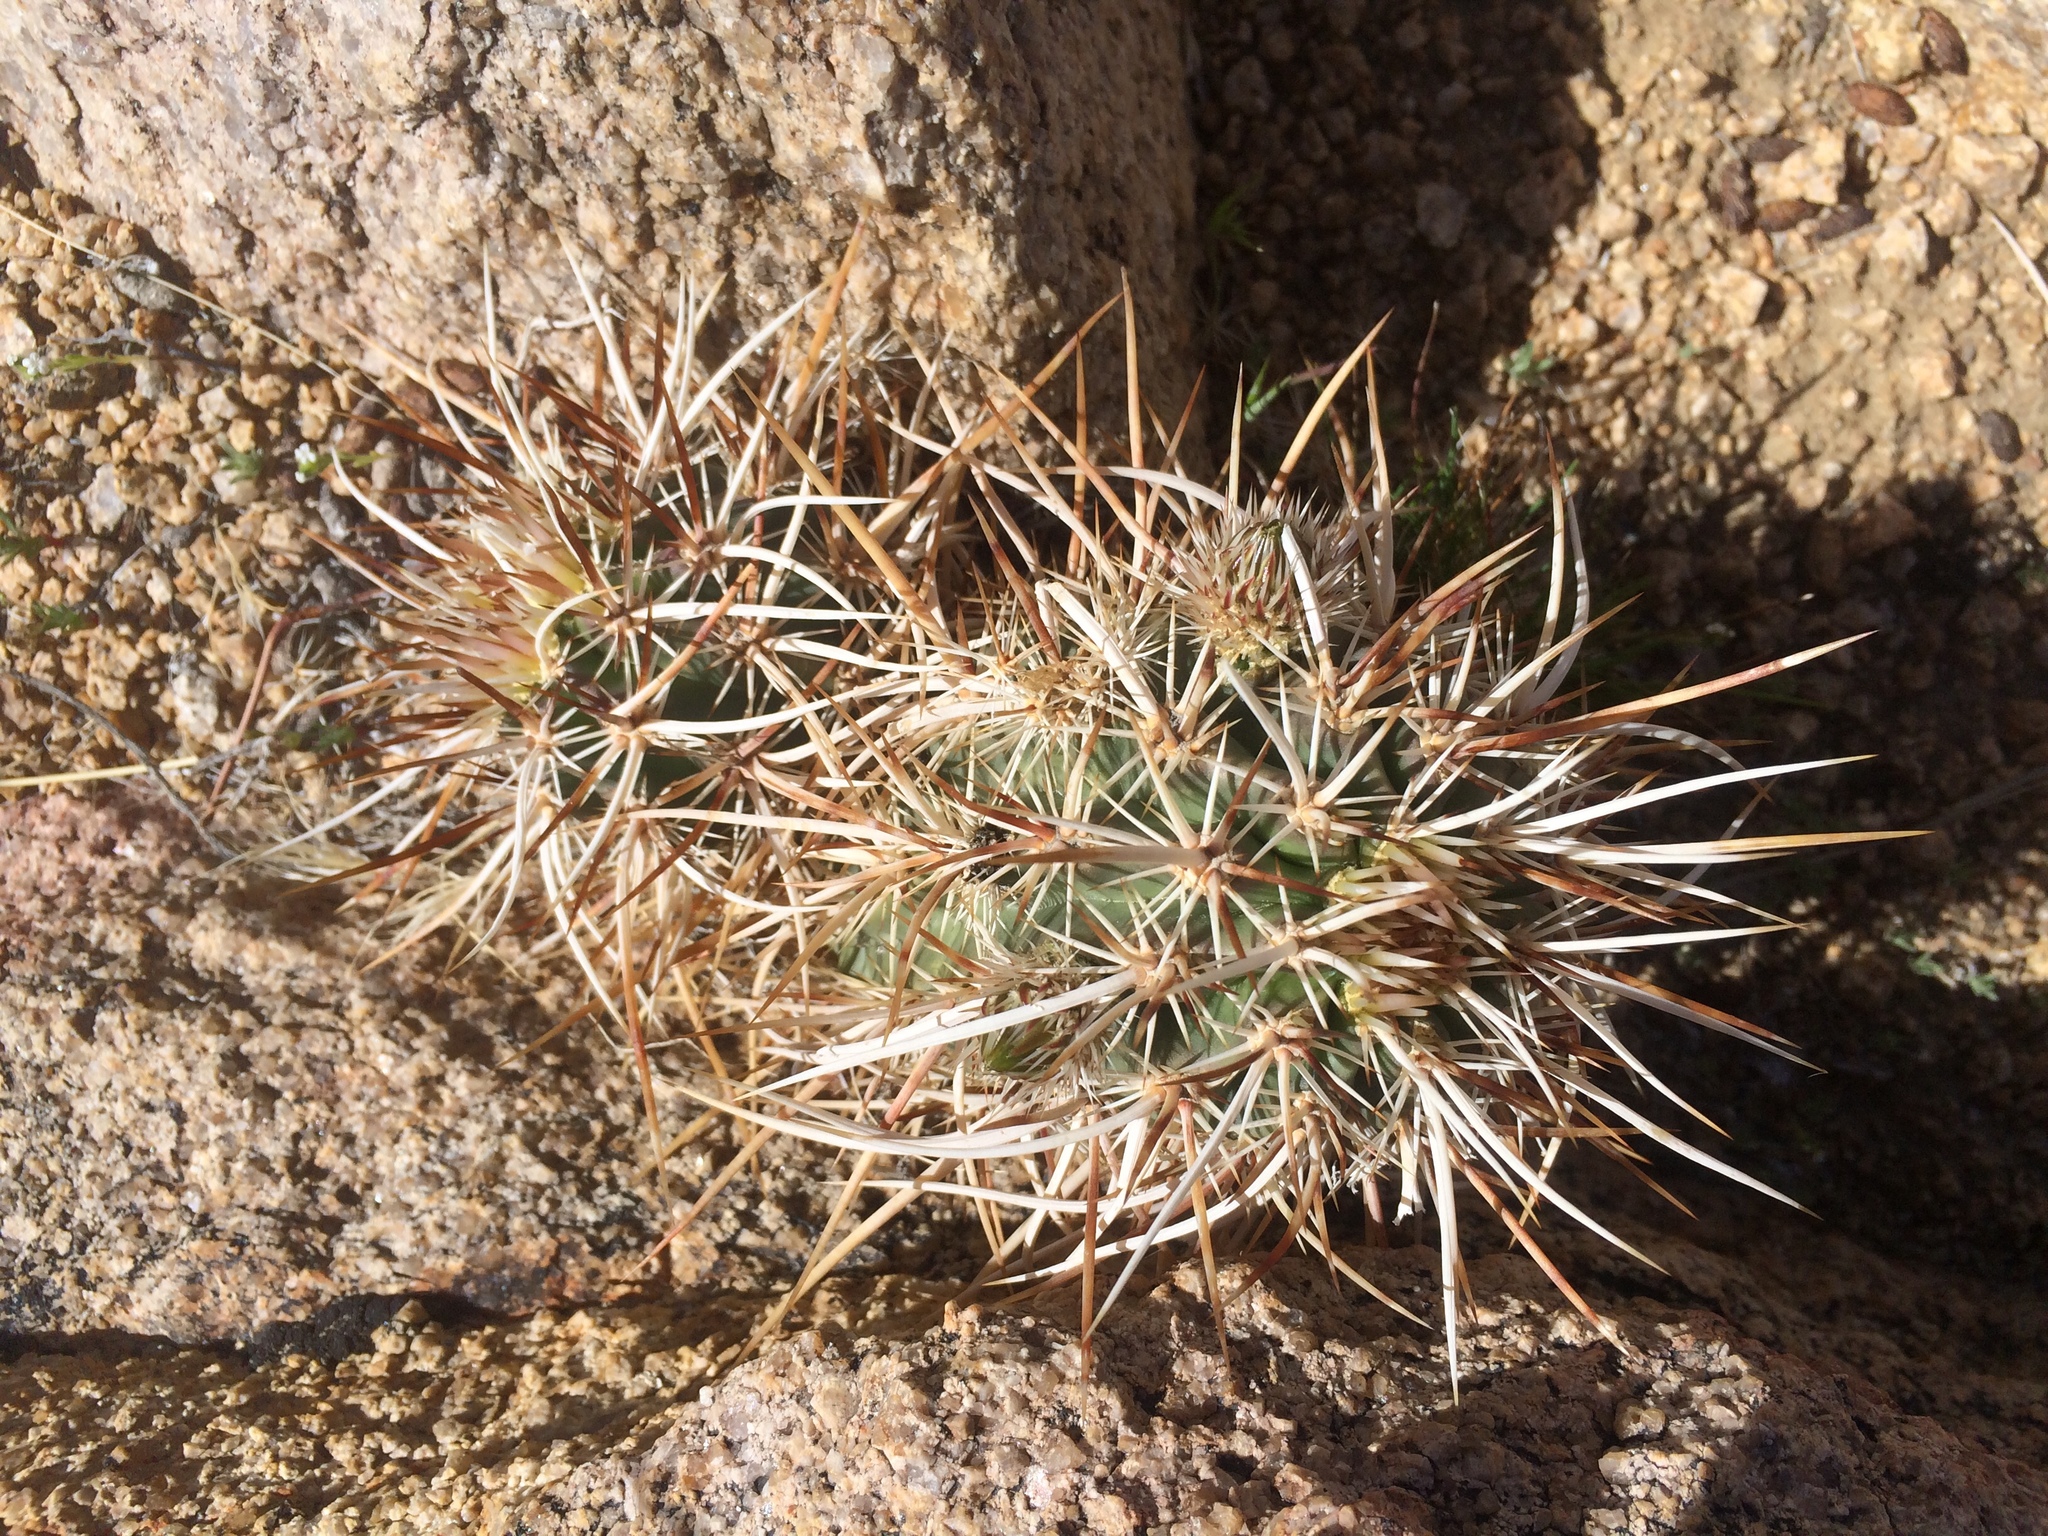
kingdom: Plantae
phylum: Tracheophyta
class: Magnoliopsida
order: Caryophyllales
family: Cactaceae
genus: Echinocereus
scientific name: Echinocereus engelmannii
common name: Engelmann's hedgehog cactus
